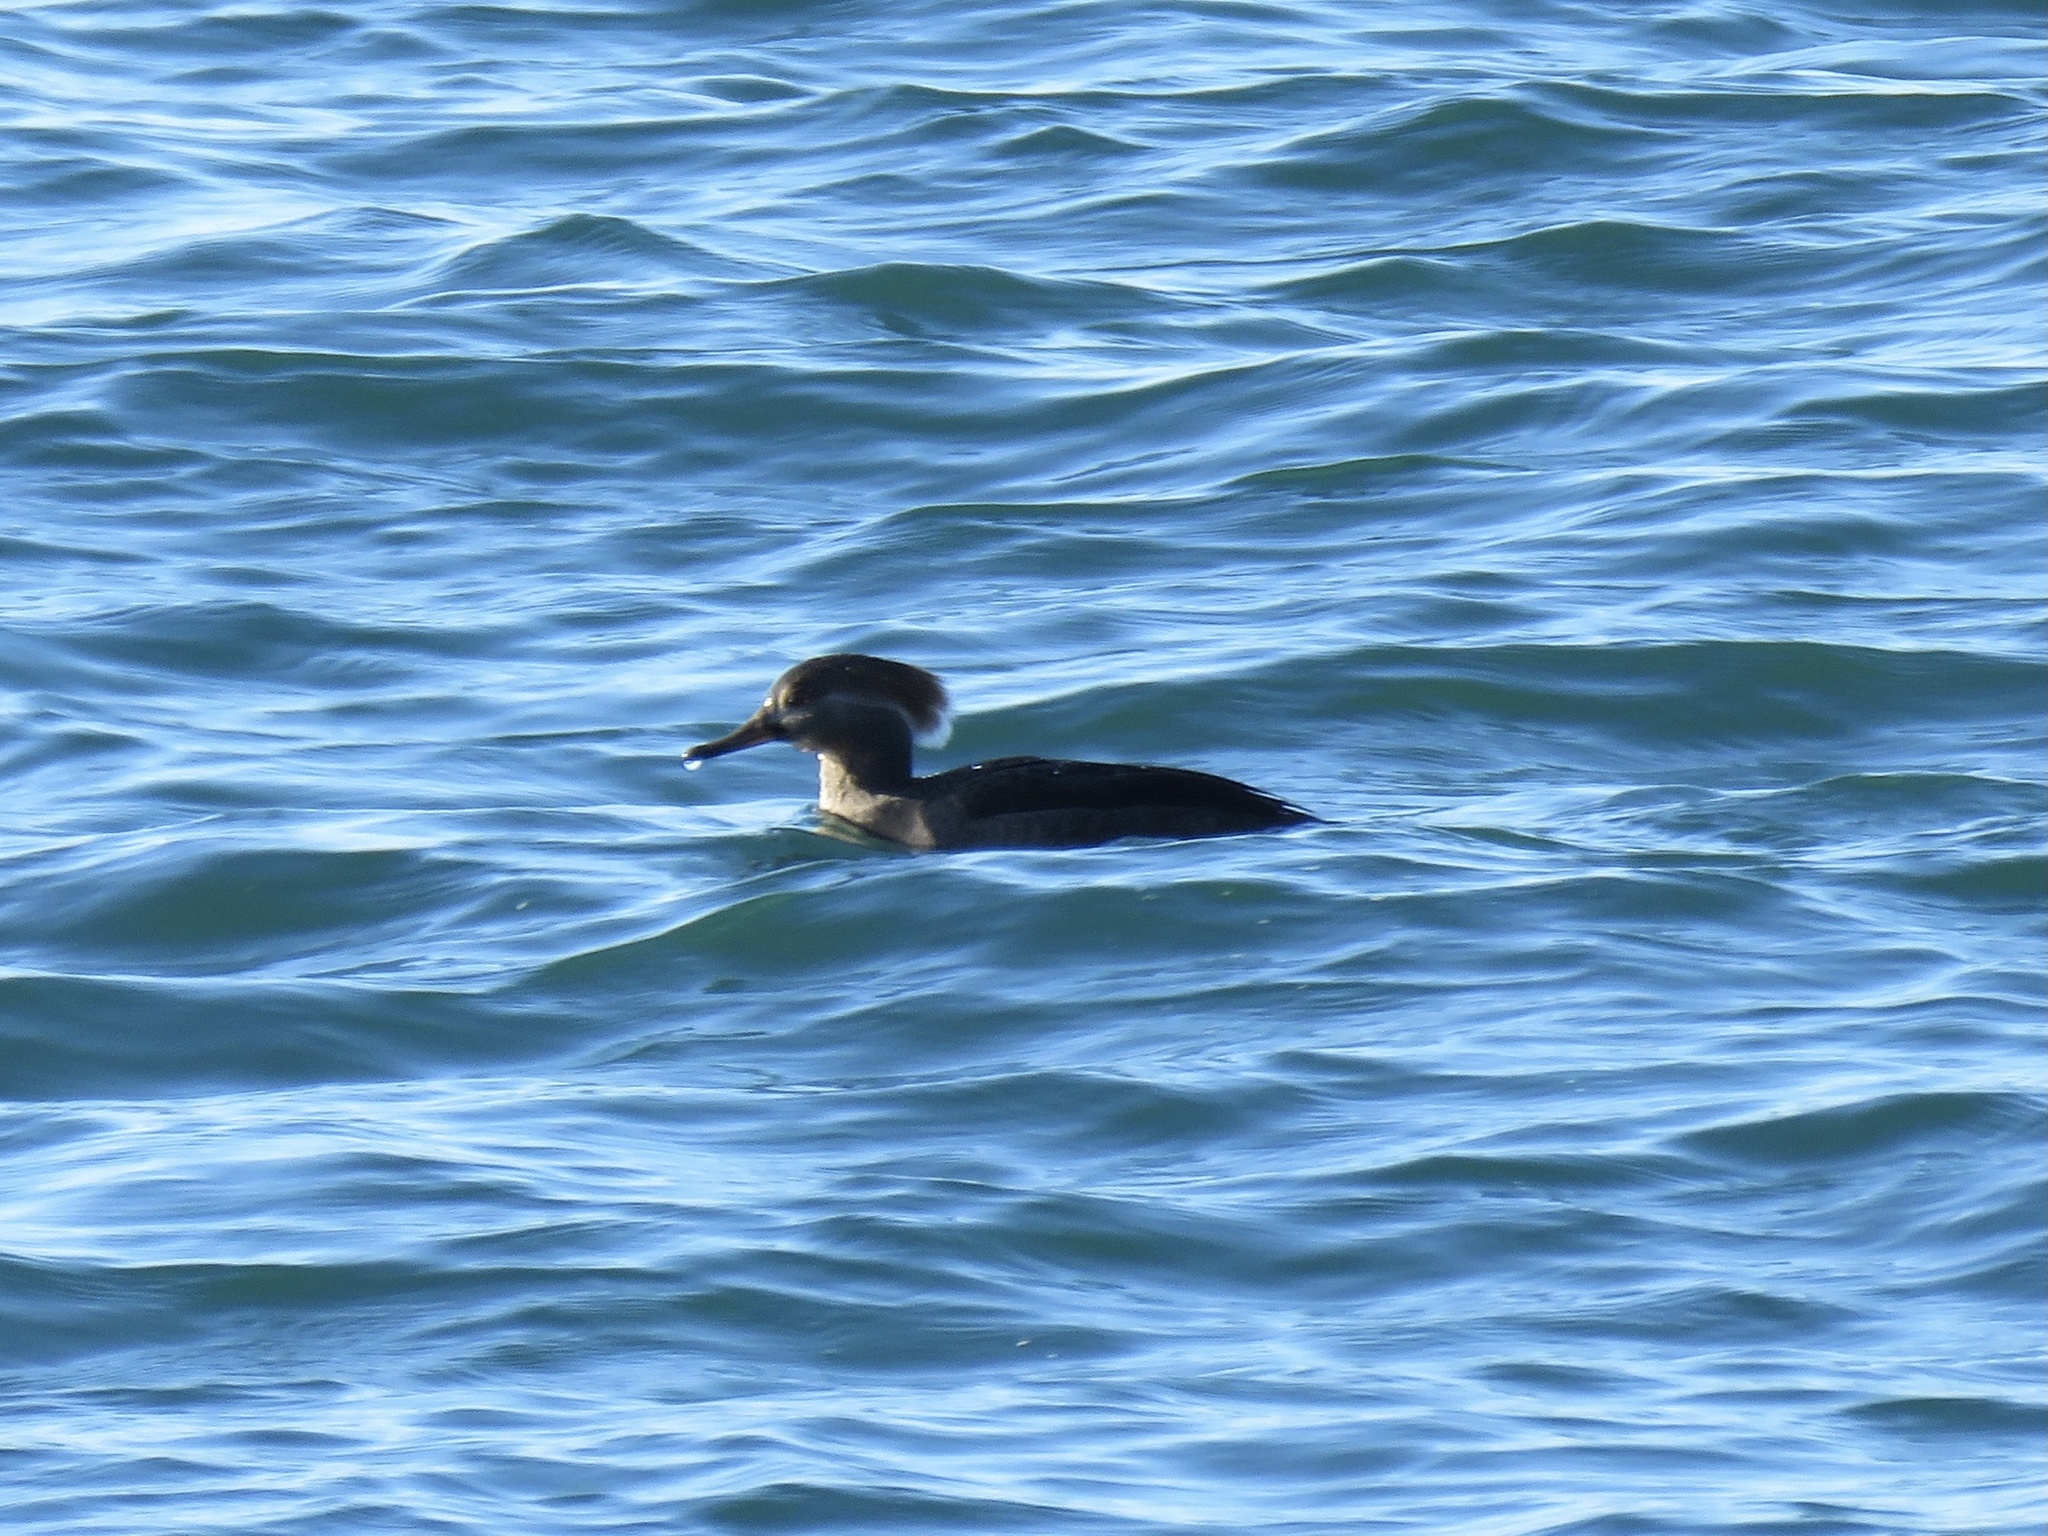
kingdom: Animalia
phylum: Chordata
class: Aves
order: Anseriformes
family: Anatidae
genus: Lophodytes
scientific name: Lophodytes cucullatus
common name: Hooded merganser
